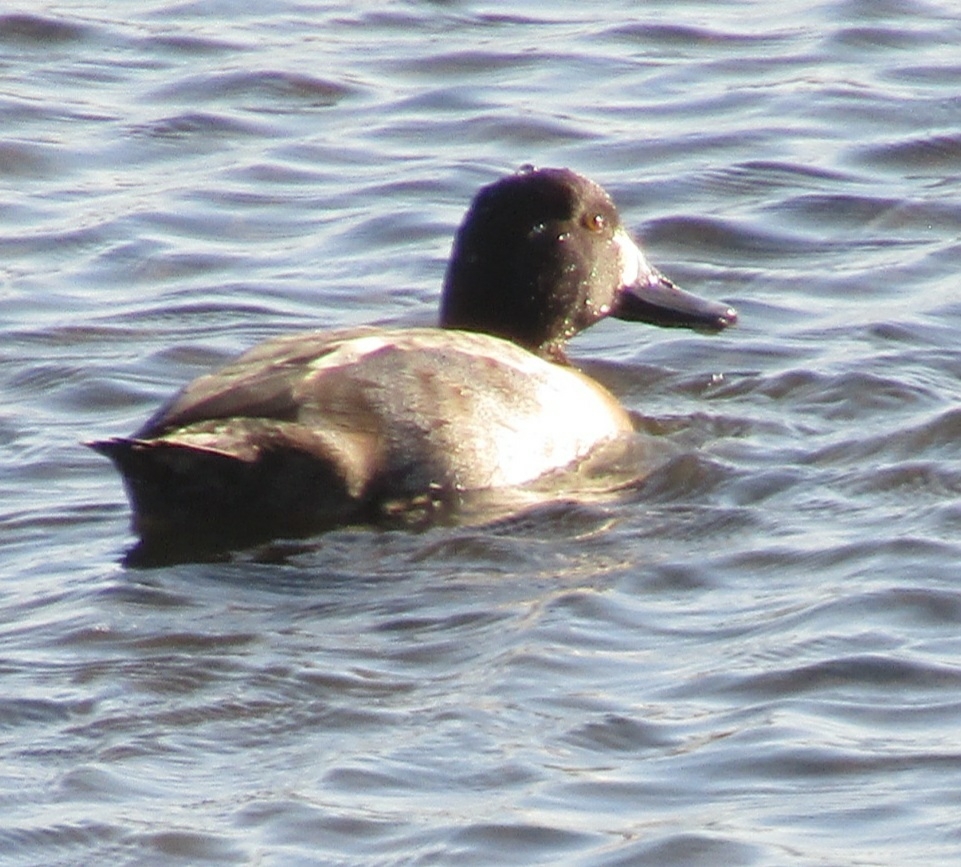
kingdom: Animalia
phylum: Chordata
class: Aves
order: Anseriformes
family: Anatidae
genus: Aythya
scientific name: Aythya marila
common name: Greater scaup
